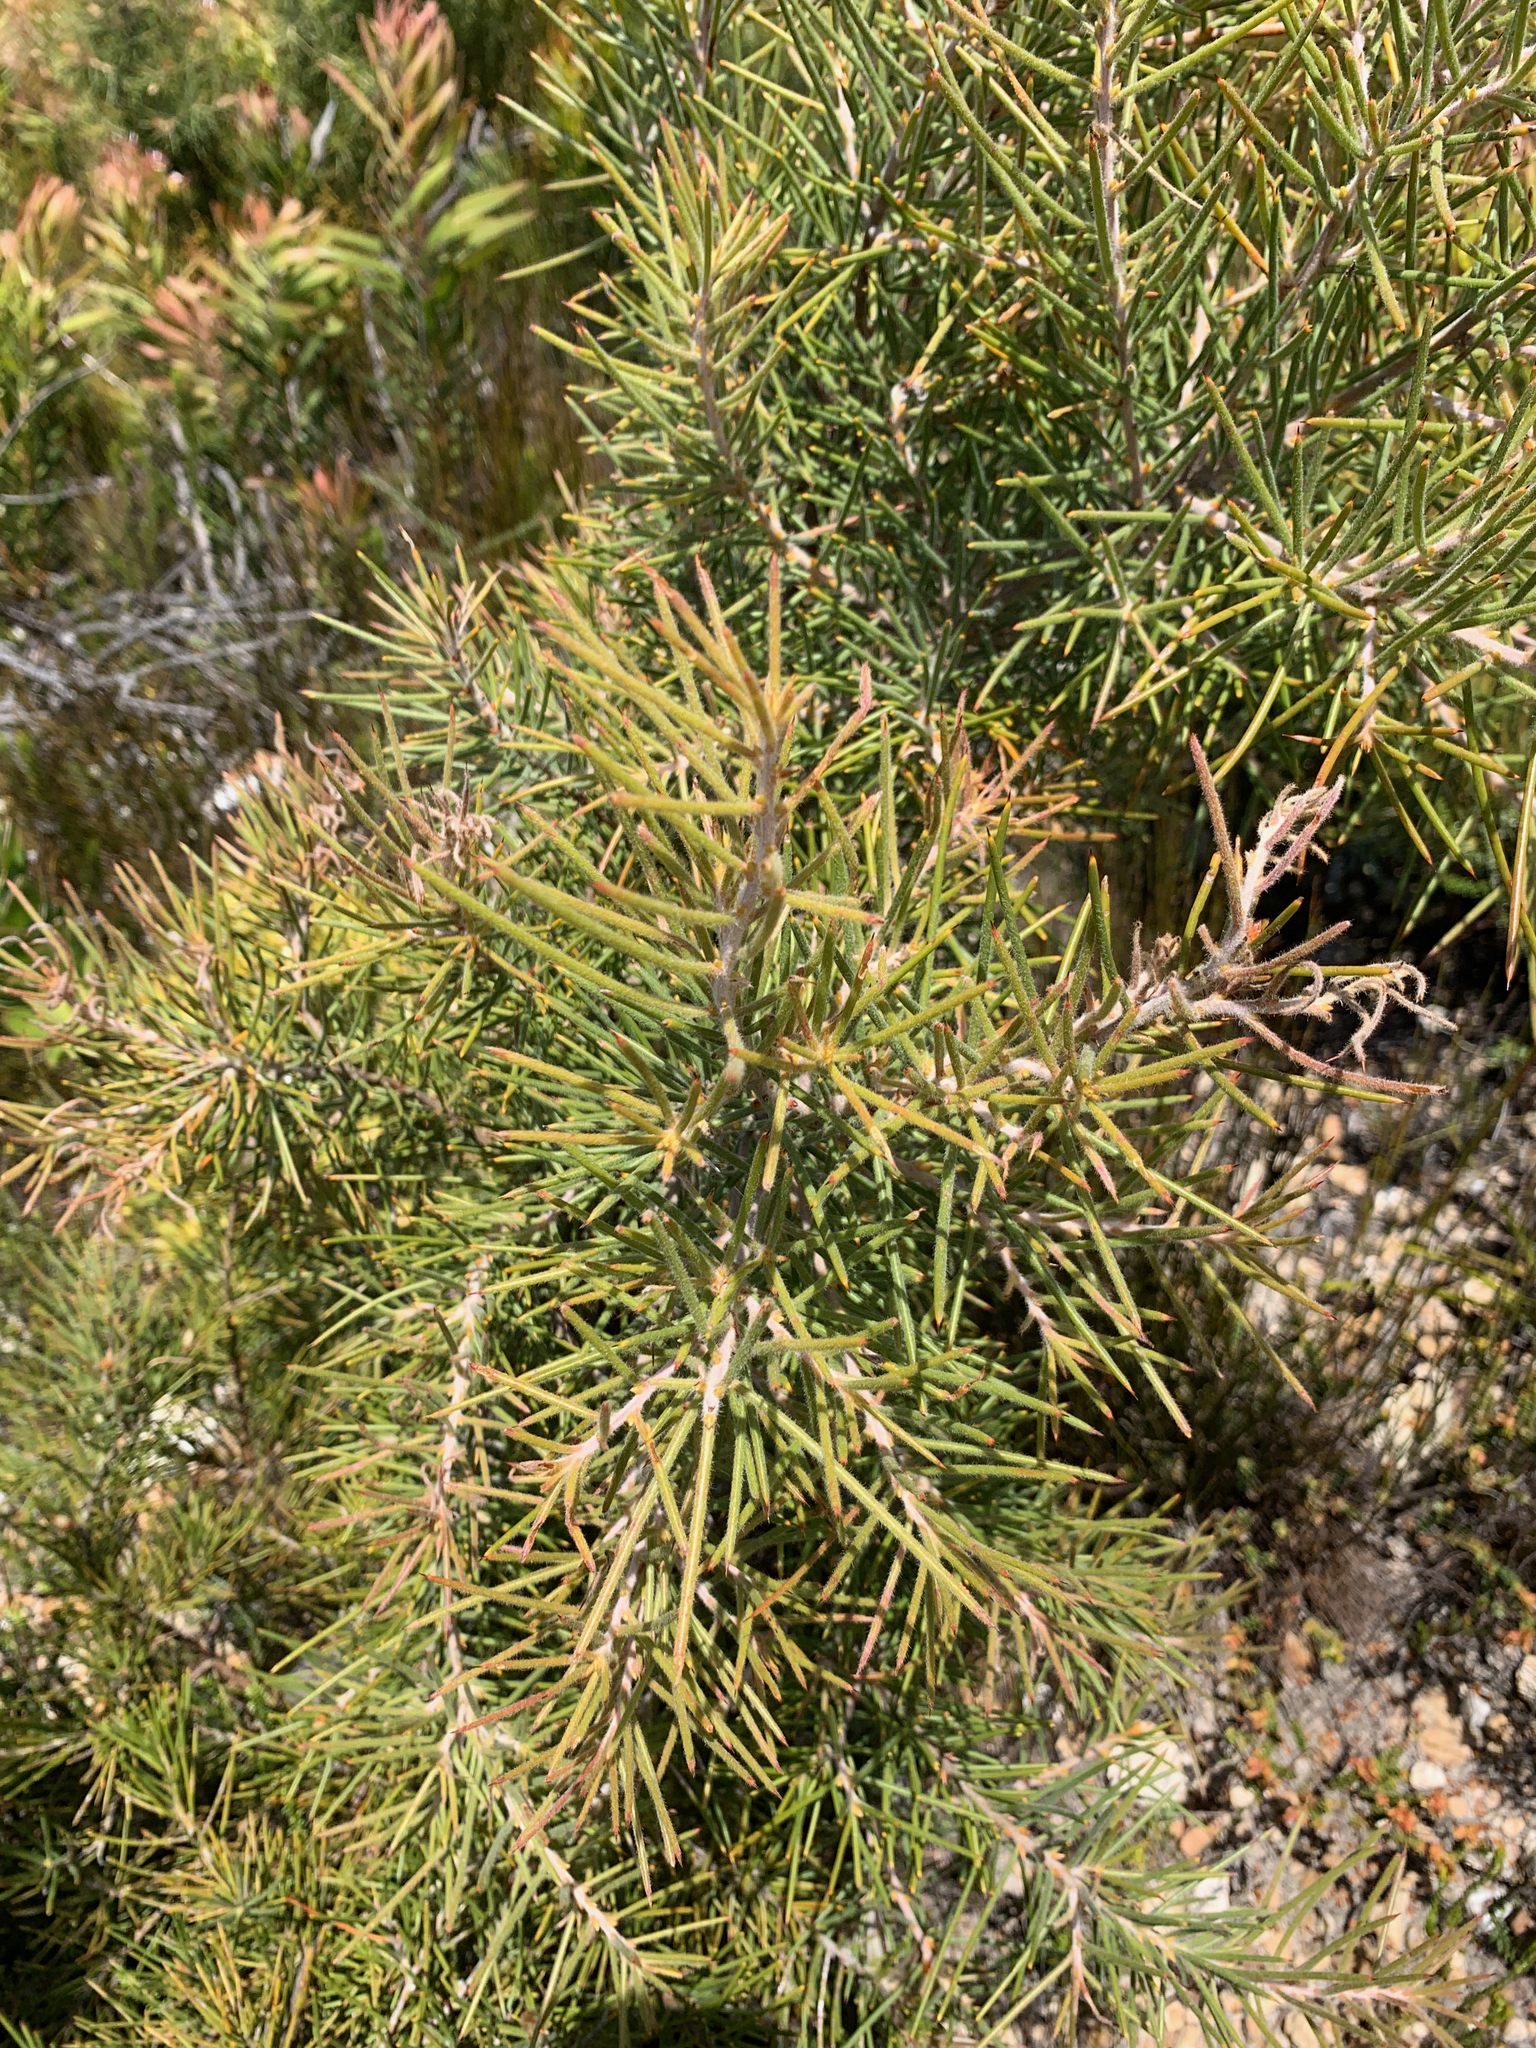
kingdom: Plantae
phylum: Tracheophyta
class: Magnoliopsida
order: Proteales
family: Proteaceae
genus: Hakea
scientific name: Hakea gibbosa
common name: Rock hakea
